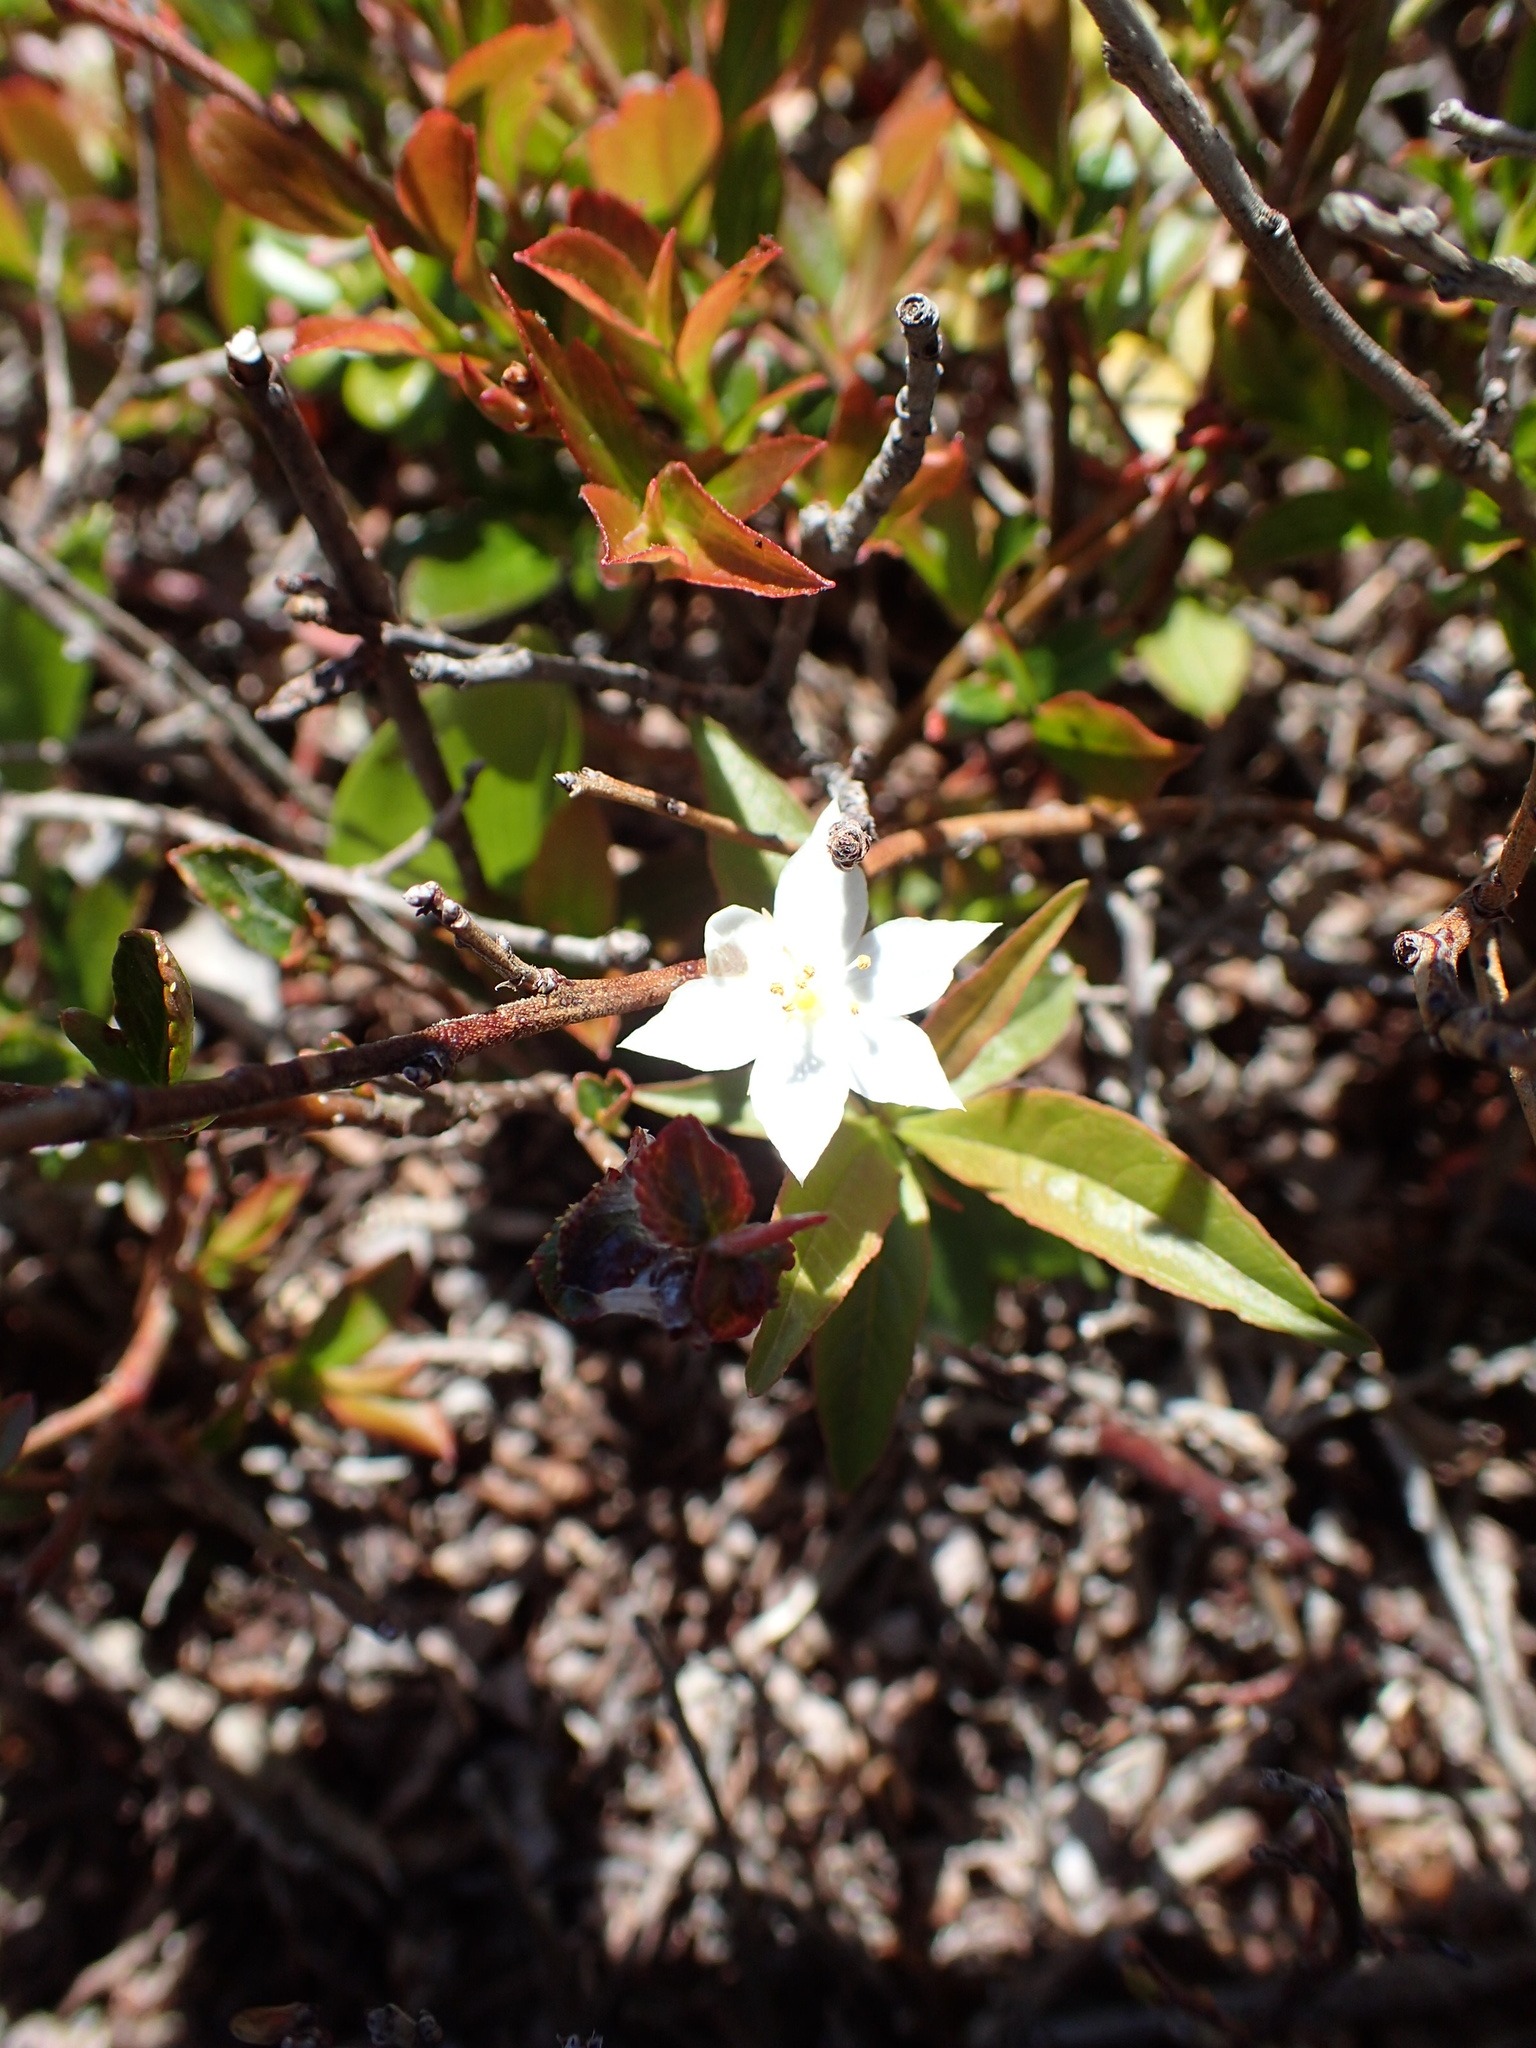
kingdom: Plantae
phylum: Tracheophyta
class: Magnoliopsida
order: Ericales
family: Primulaceae
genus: Lysimachia
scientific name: Lysimachia borealis
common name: American starflower
